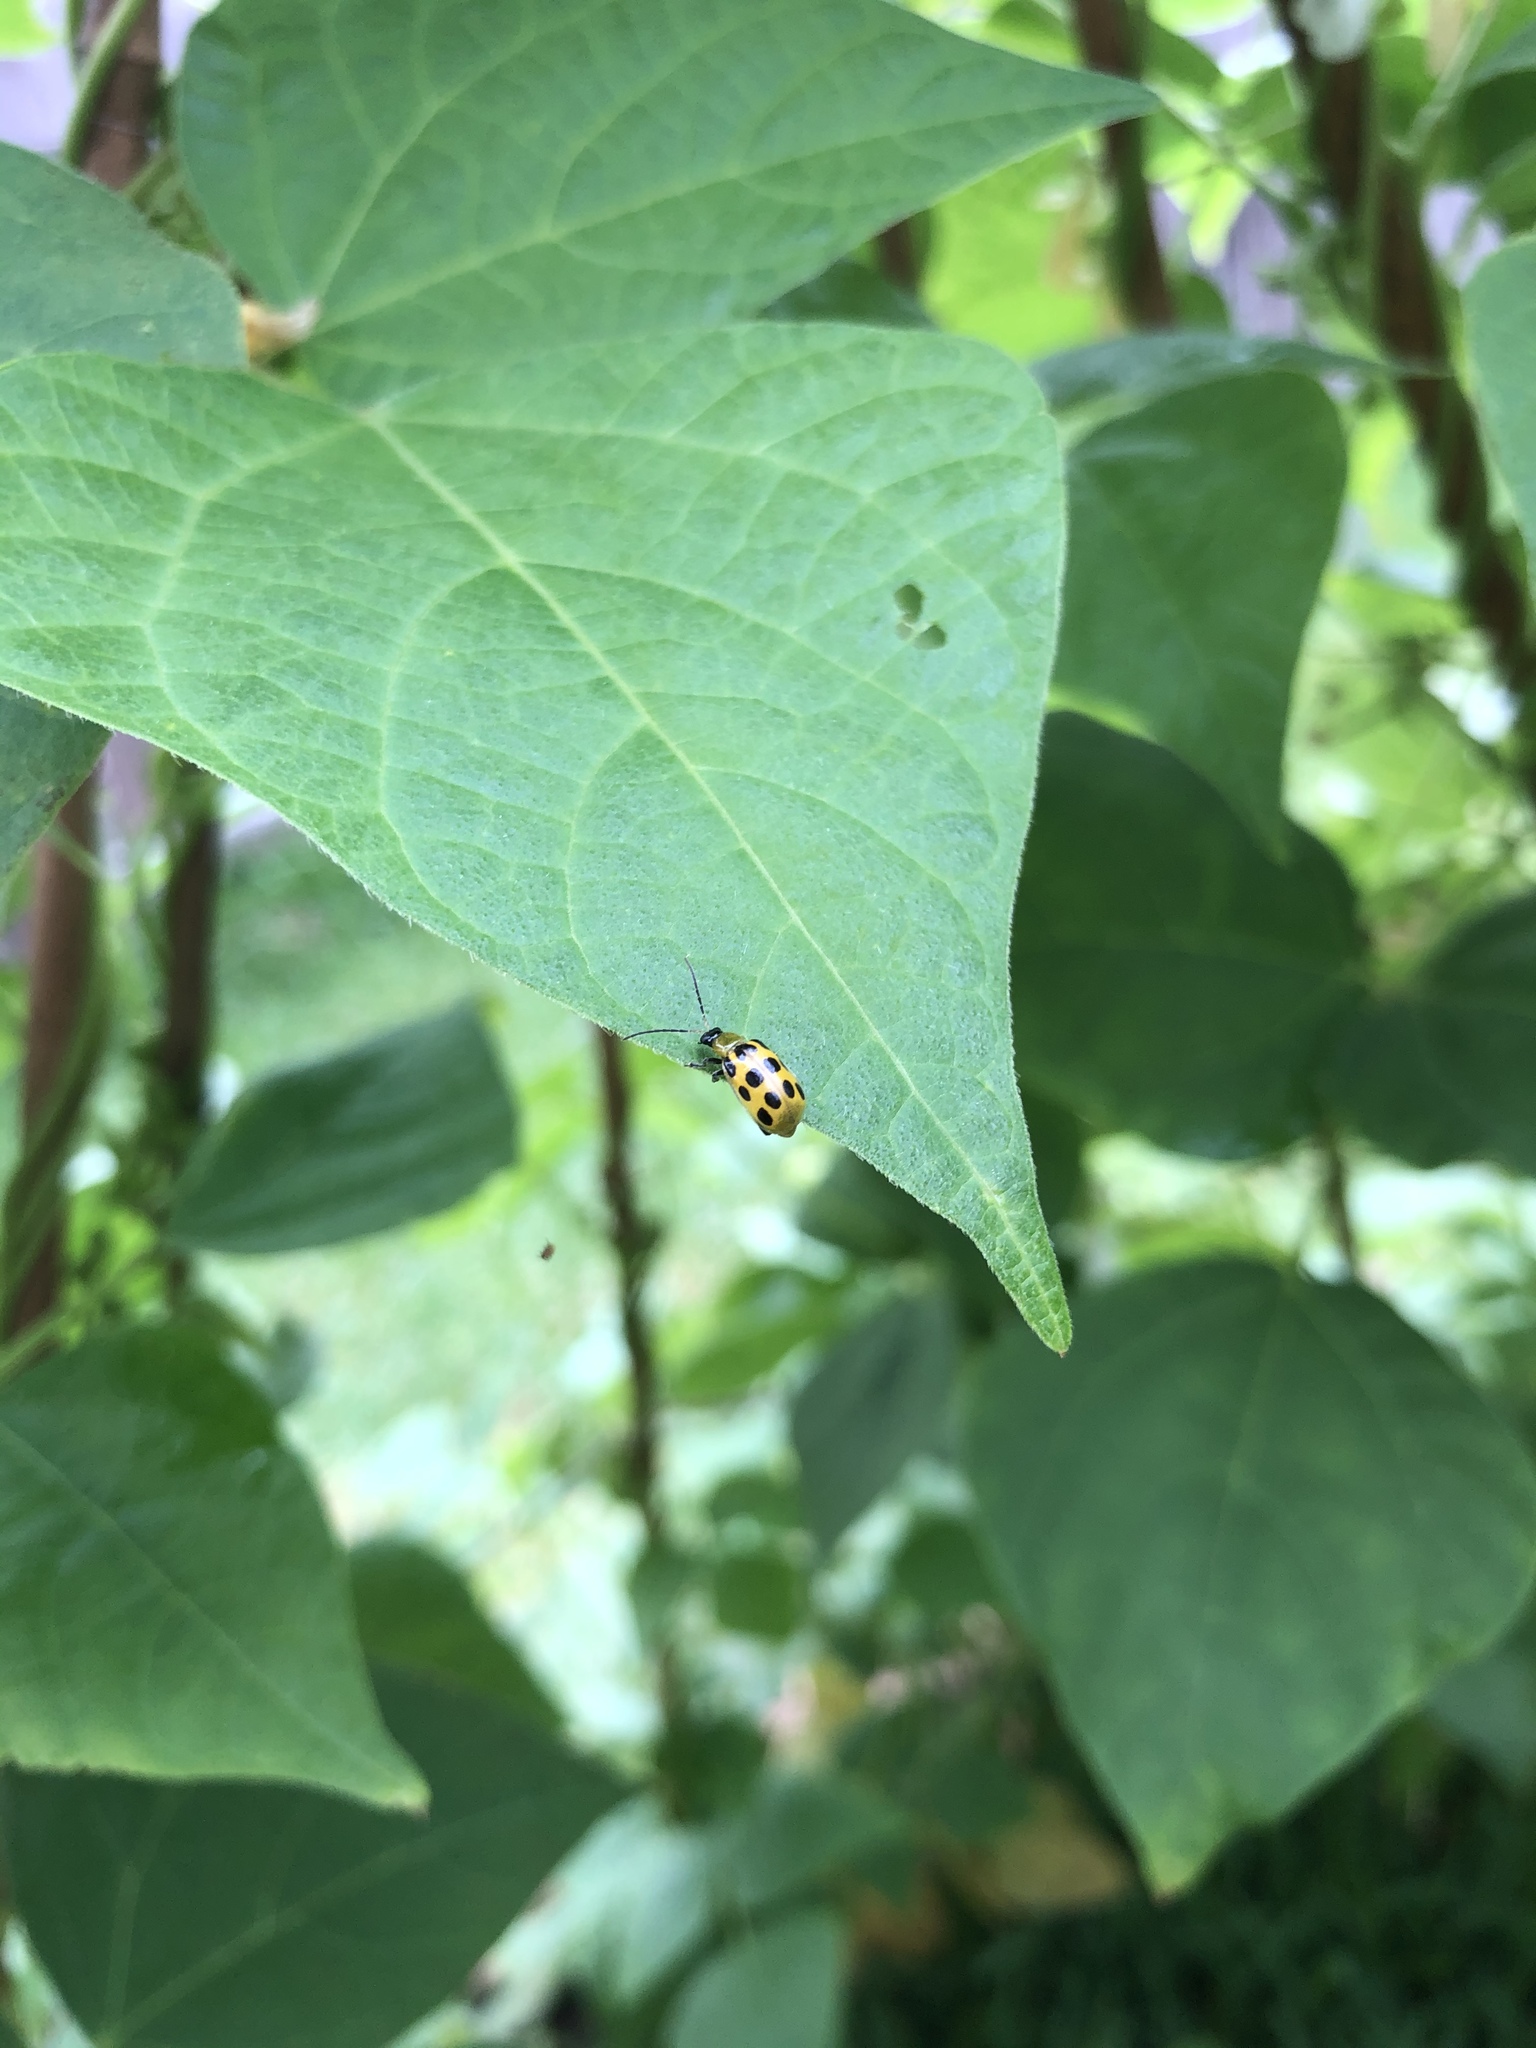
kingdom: Animalia
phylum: Arthropoda
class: Insecta
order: Coleoptera
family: Chrysomelidae
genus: Diabrotica
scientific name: Diabrotica undecimpunctata
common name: Spotted cucumber beetle
